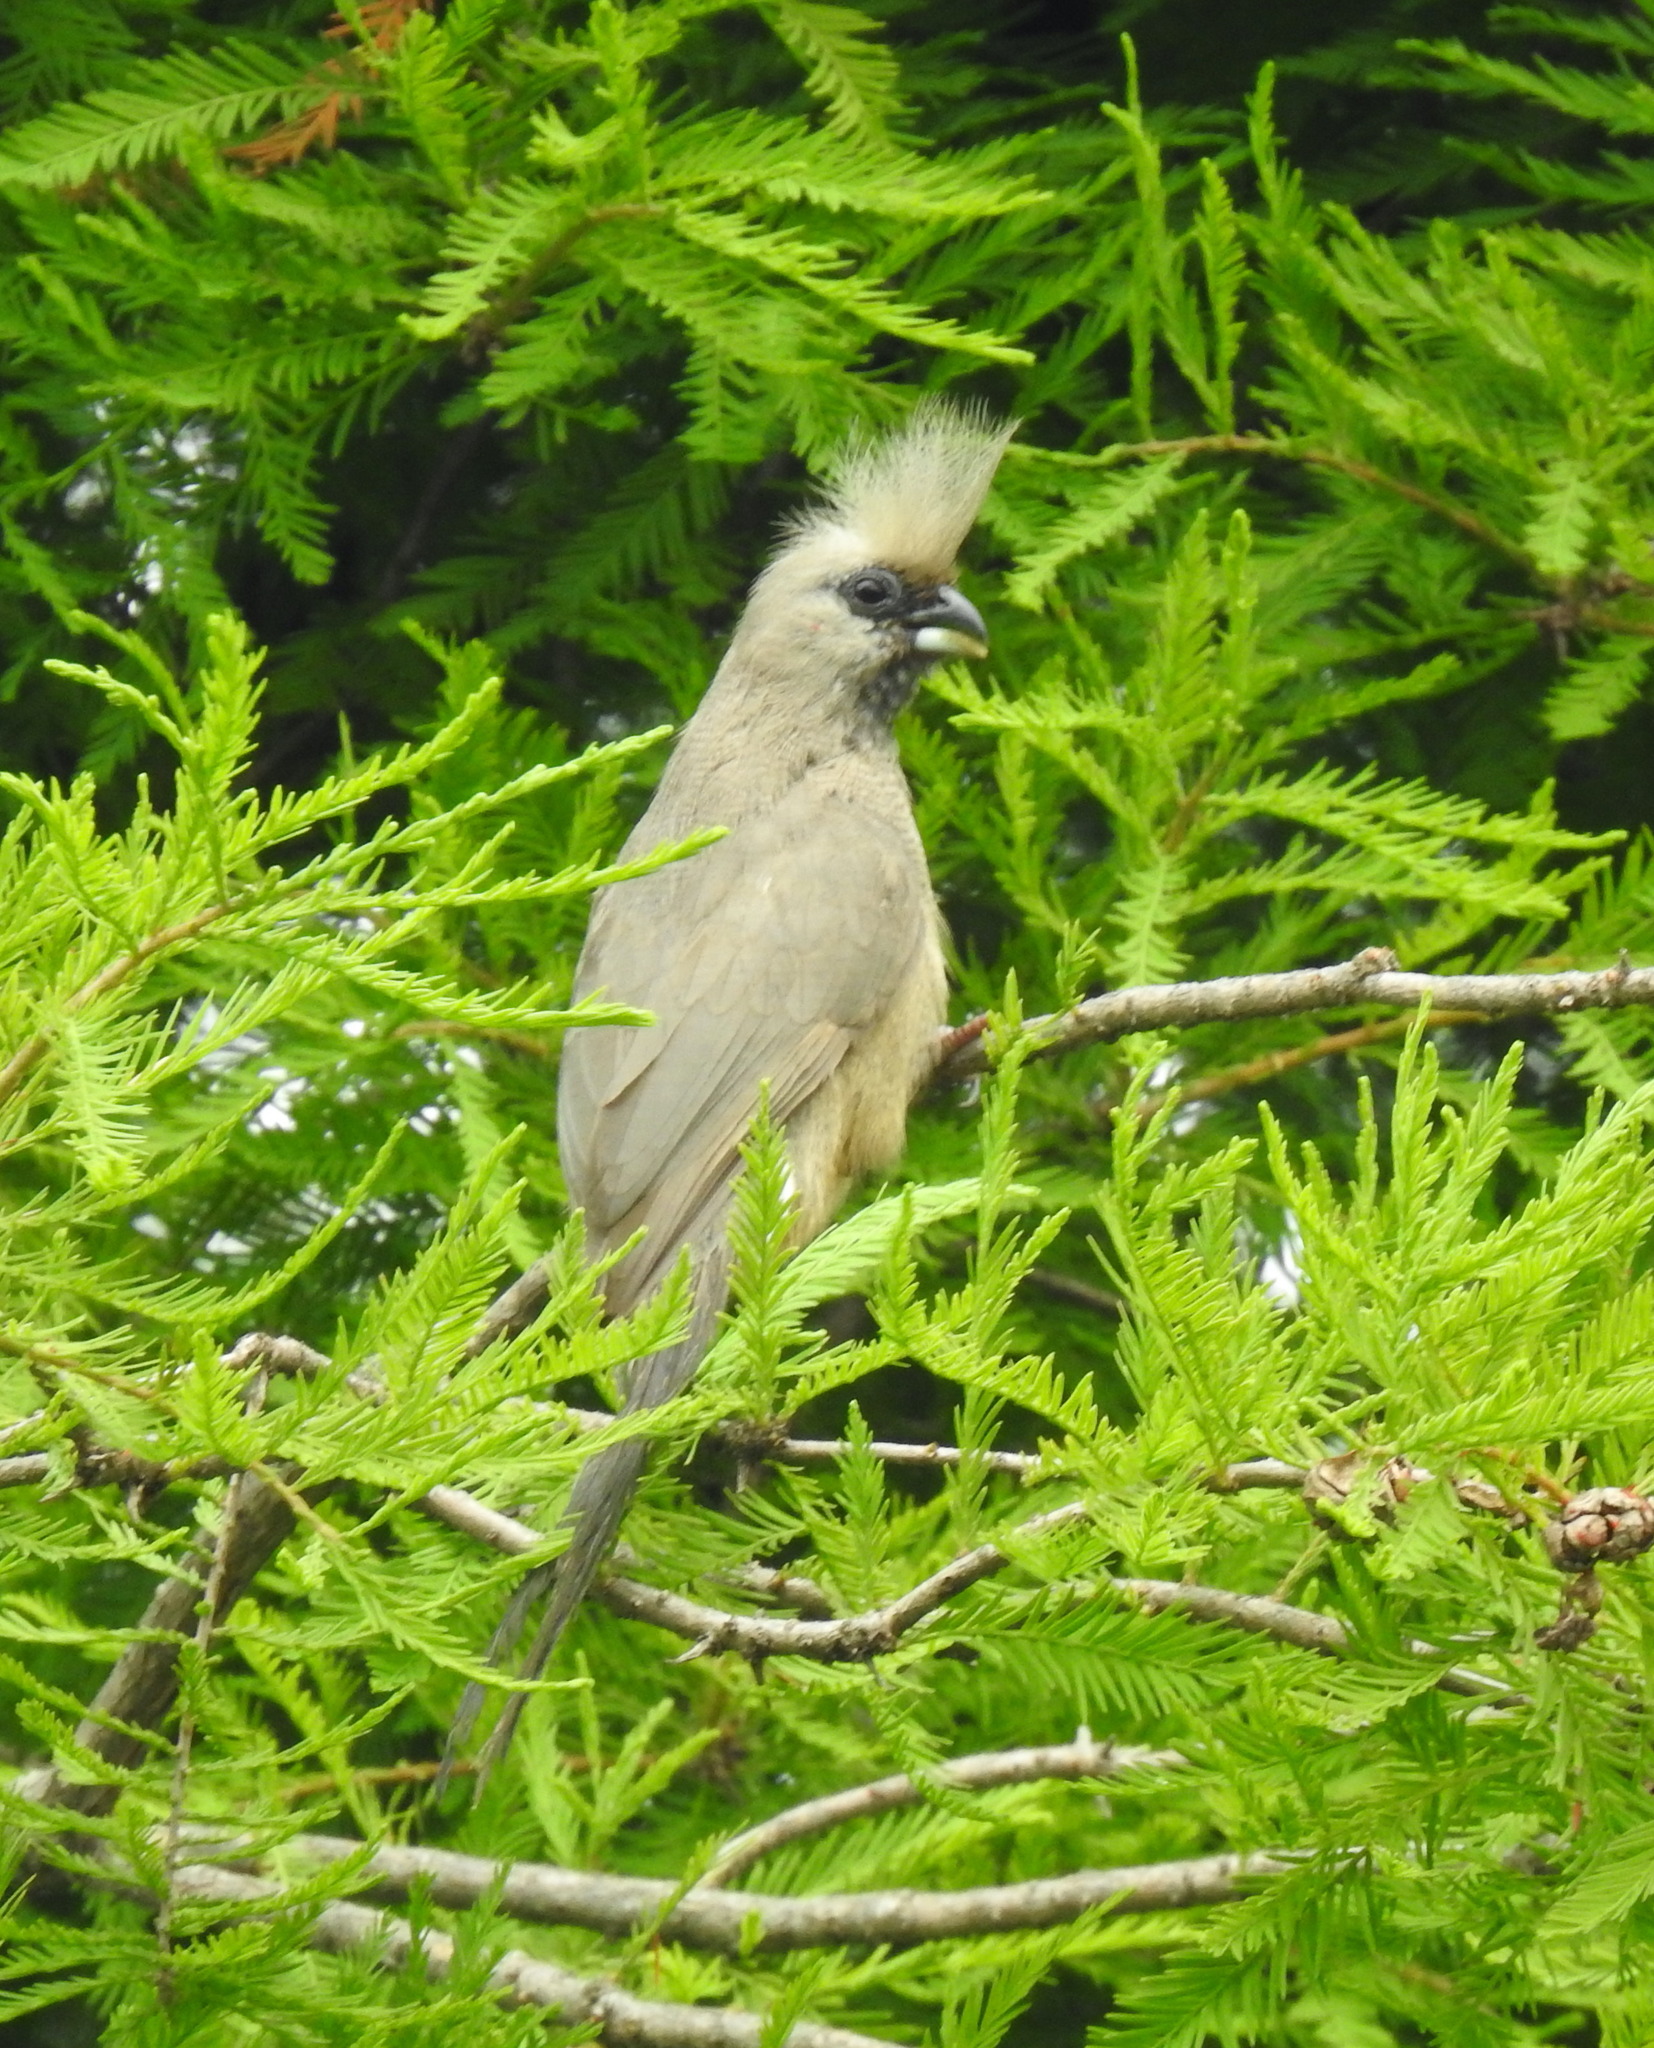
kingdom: Animalia
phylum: Chordata
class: Aves
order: Coliiformes
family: Coliidae
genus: Colius
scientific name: Colius striatus
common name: Speckled mousebird
